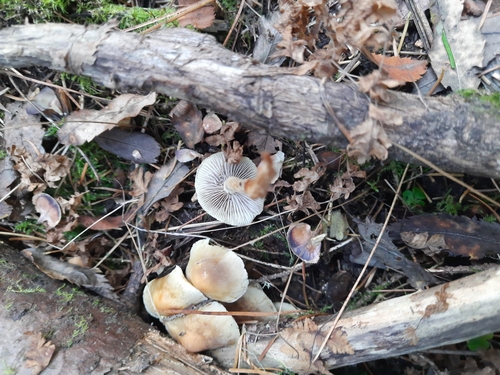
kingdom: Fungi
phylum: Basidiomycota
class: Agaricomycetes
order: Agaricales
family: Strophariaceae
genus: Hypholoma
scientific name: Hypholoma capnoides
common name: Conifer tuft
